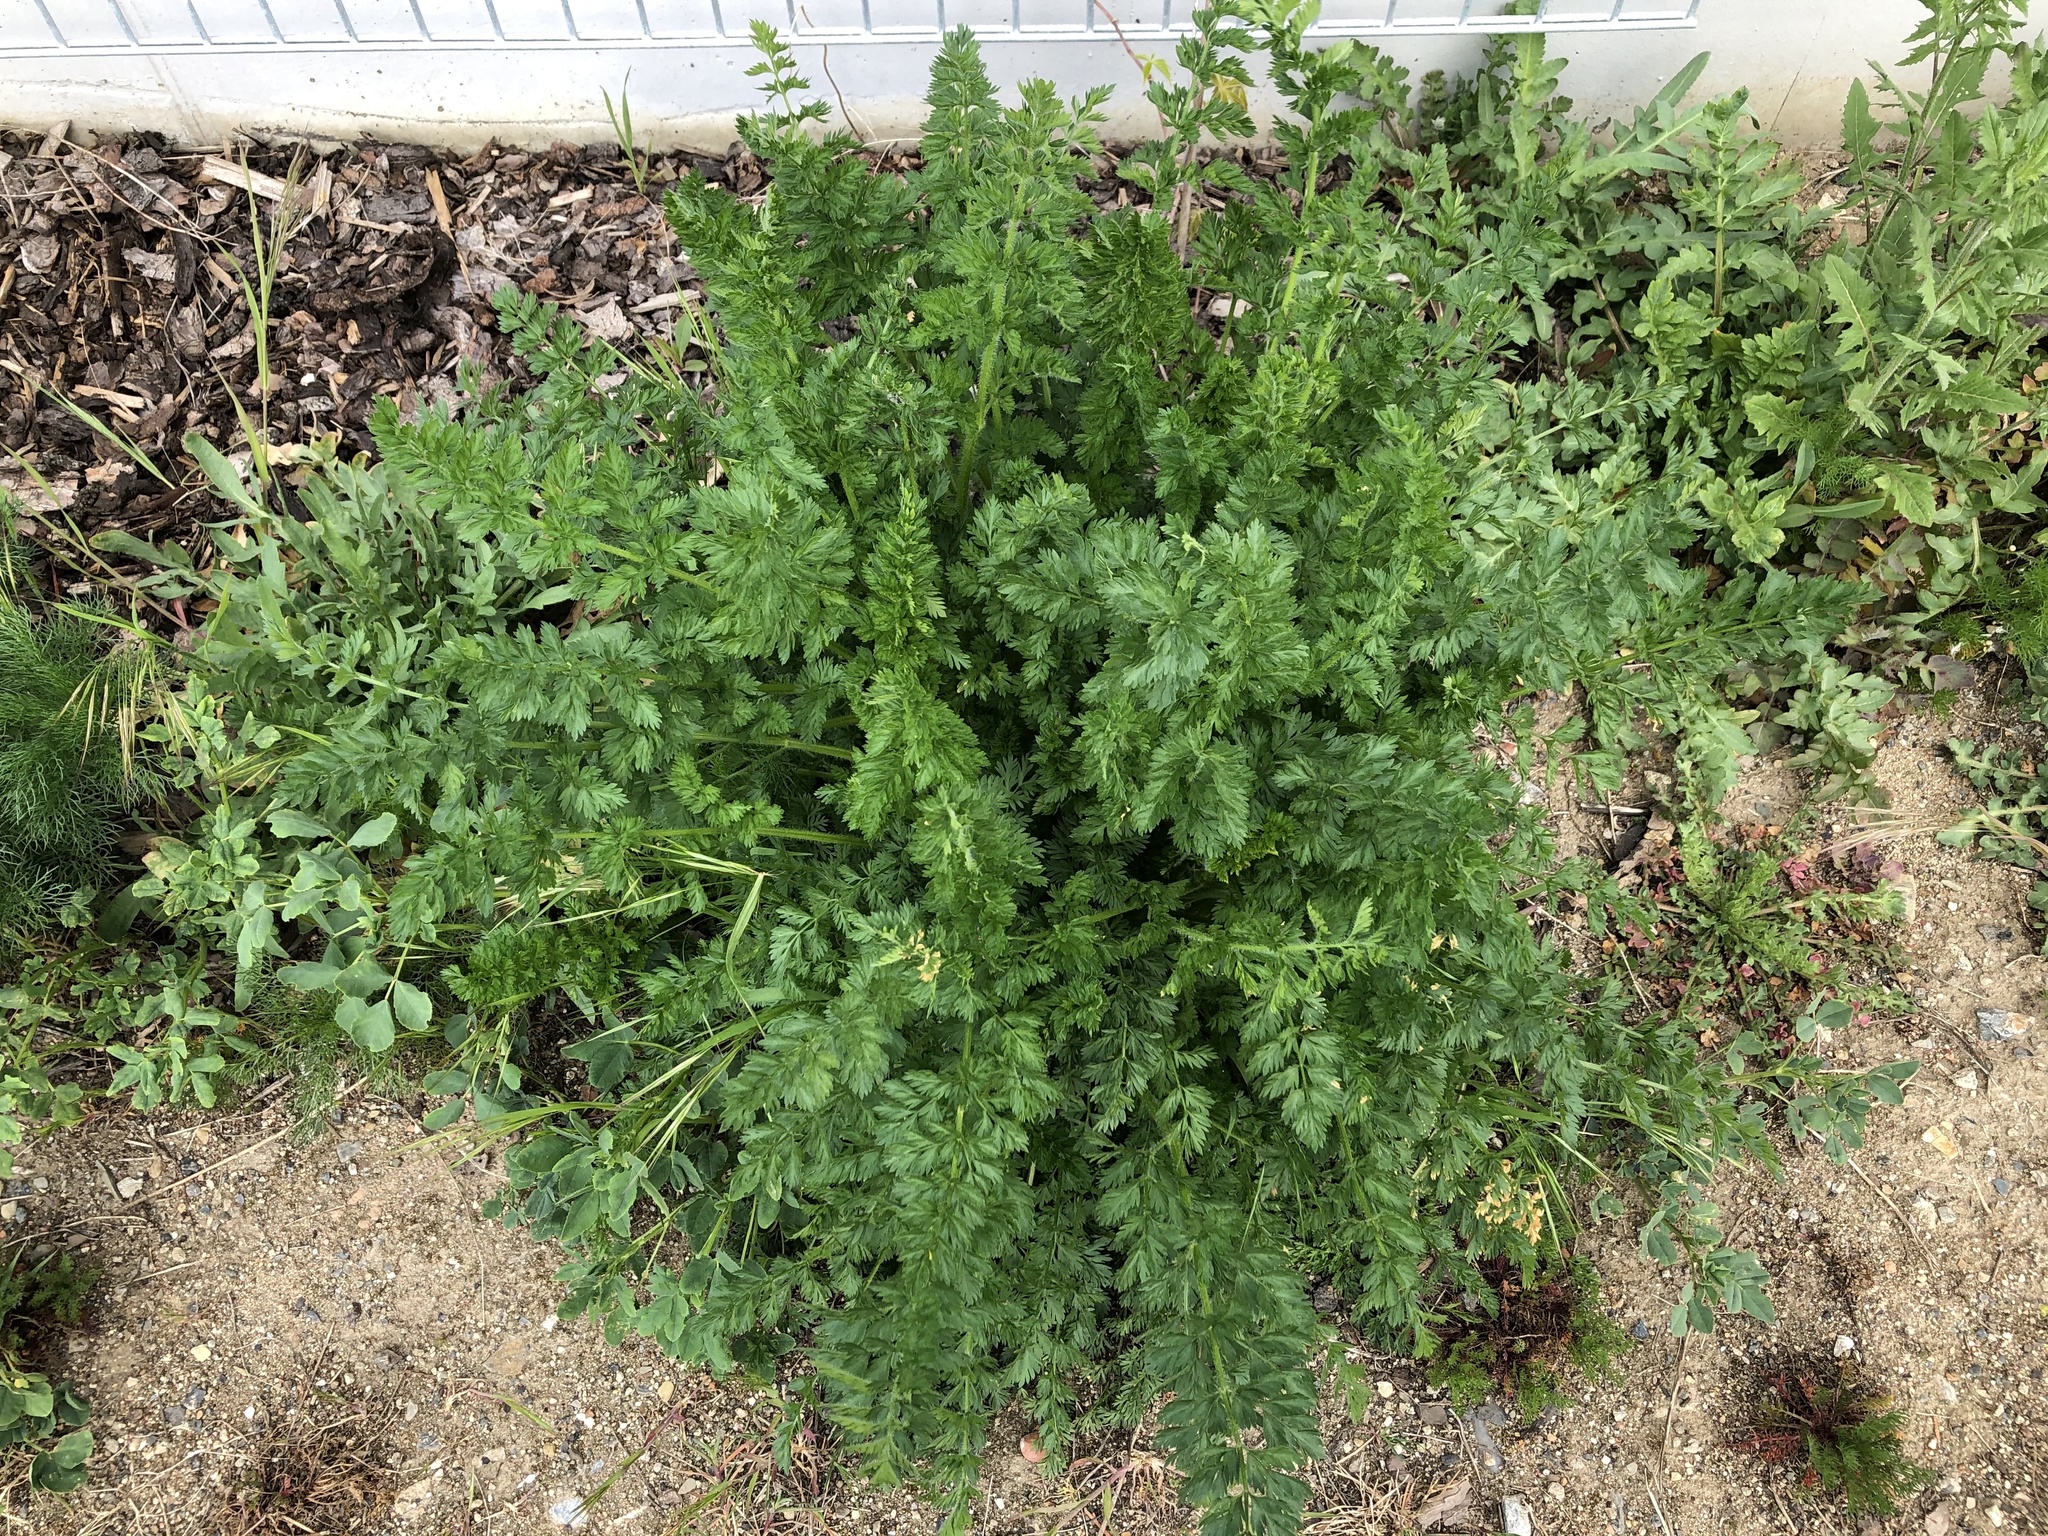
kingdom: Plantae
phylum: Tracheophyta
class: Magnoliopsida
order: Apiales
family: Apiaceae
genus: Daucus
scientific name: Daucus carota
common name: Wild carrot
